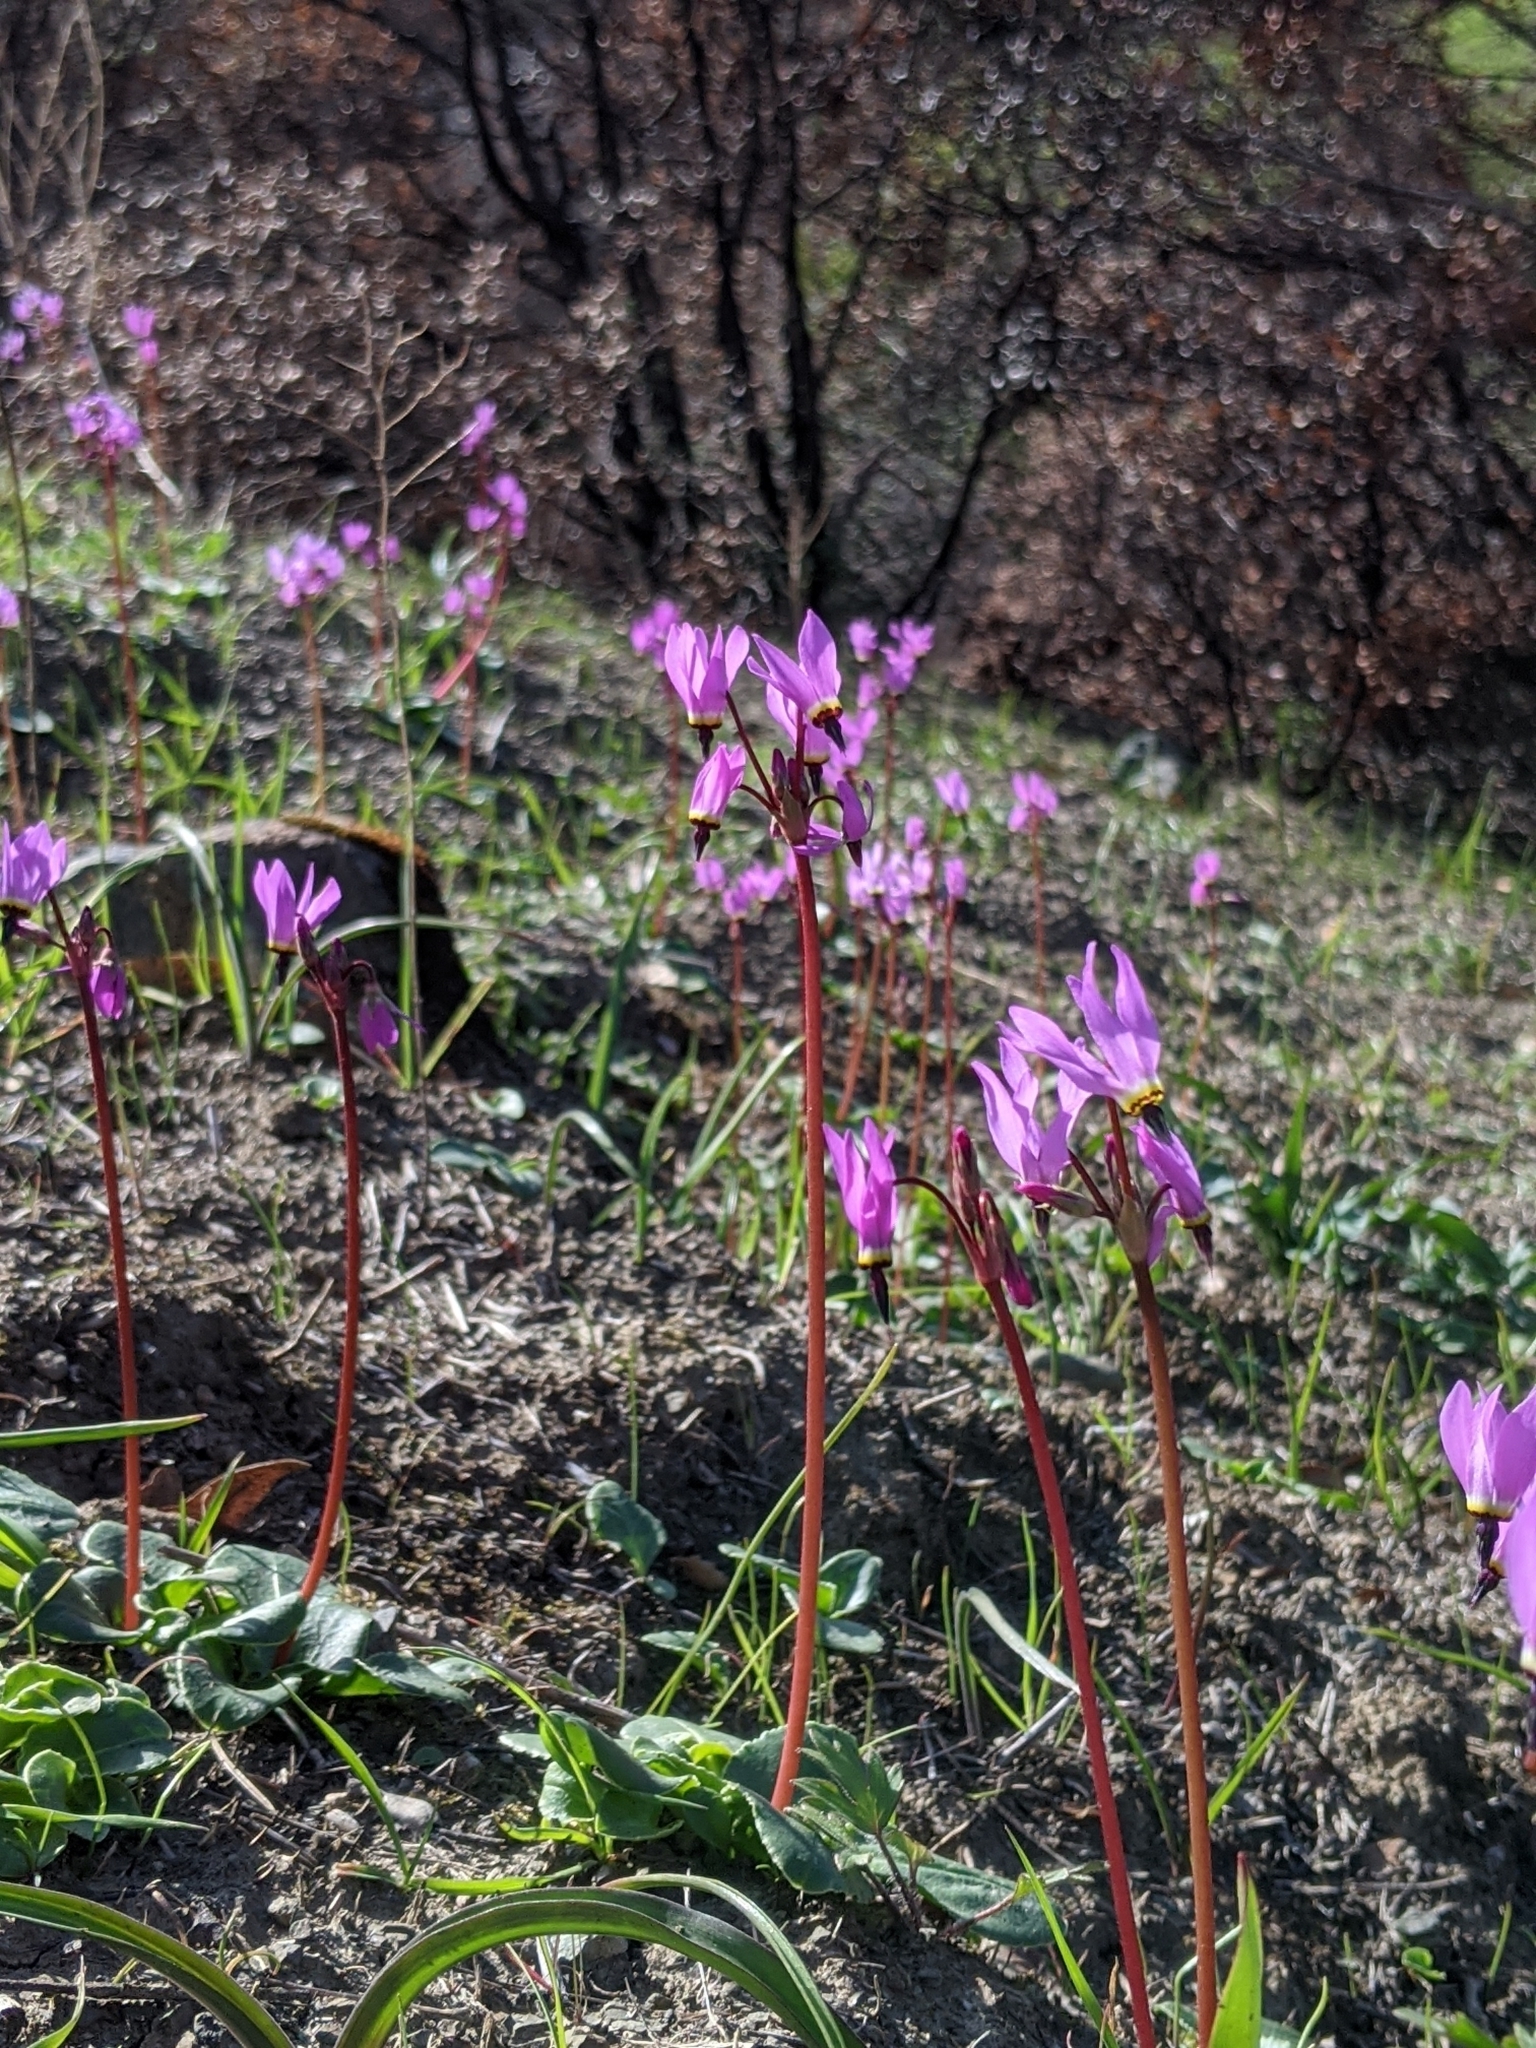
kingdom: Plantae
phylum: Tracheophyta
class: Magnoliopsida
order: Ericales
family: Primulaceae
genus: Dodecatheon
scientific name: Dodecatheon hendersonii
